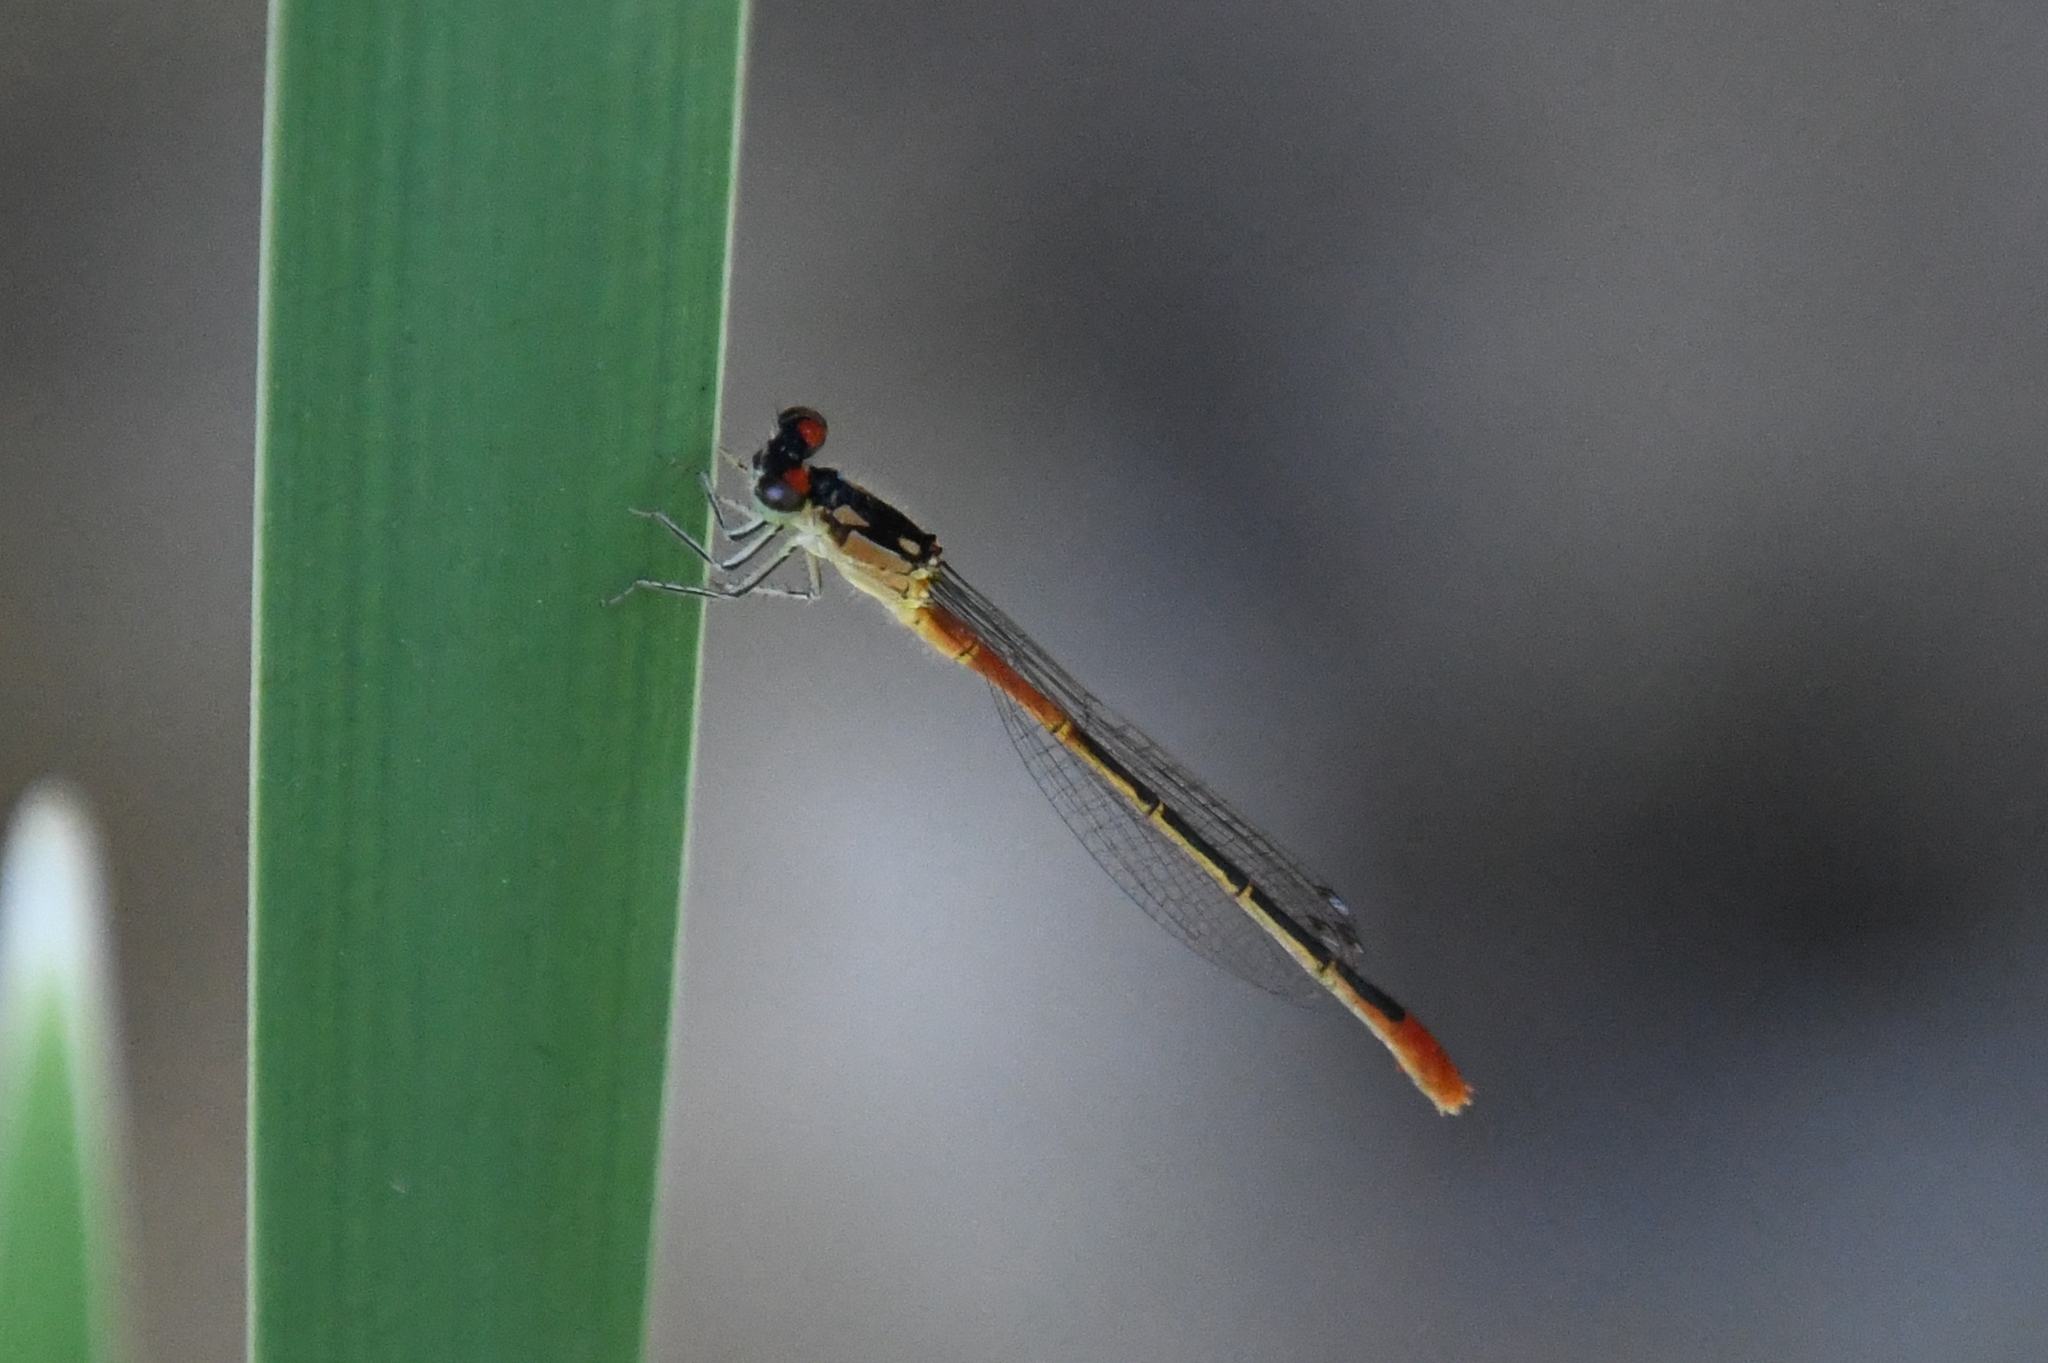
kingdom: Animalia
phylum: Arthropoda
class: Insecta
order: Odonata
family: Coenagrionidae
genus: Hesperagrion
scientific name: Hesperagrion heterodoxum
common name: Painted damsel
